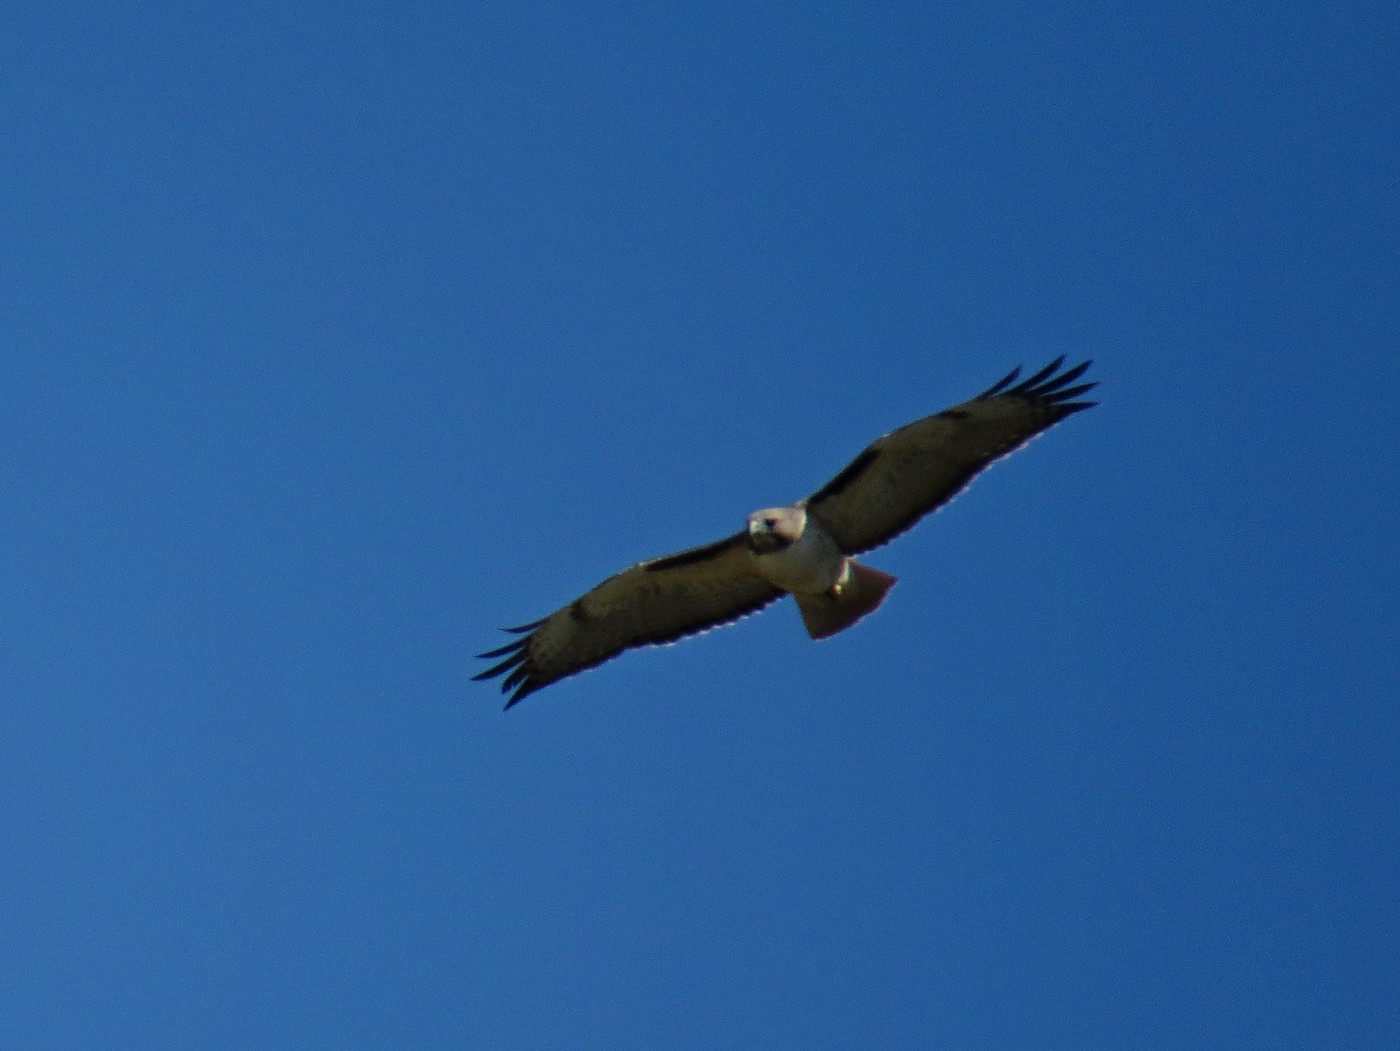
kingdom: Animalia
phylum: Chordata
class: Aves
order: Accipitriformes
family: Accipitridae
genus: Buteo
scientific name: Buteo jamaicensis
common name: Red-tailed hawk
